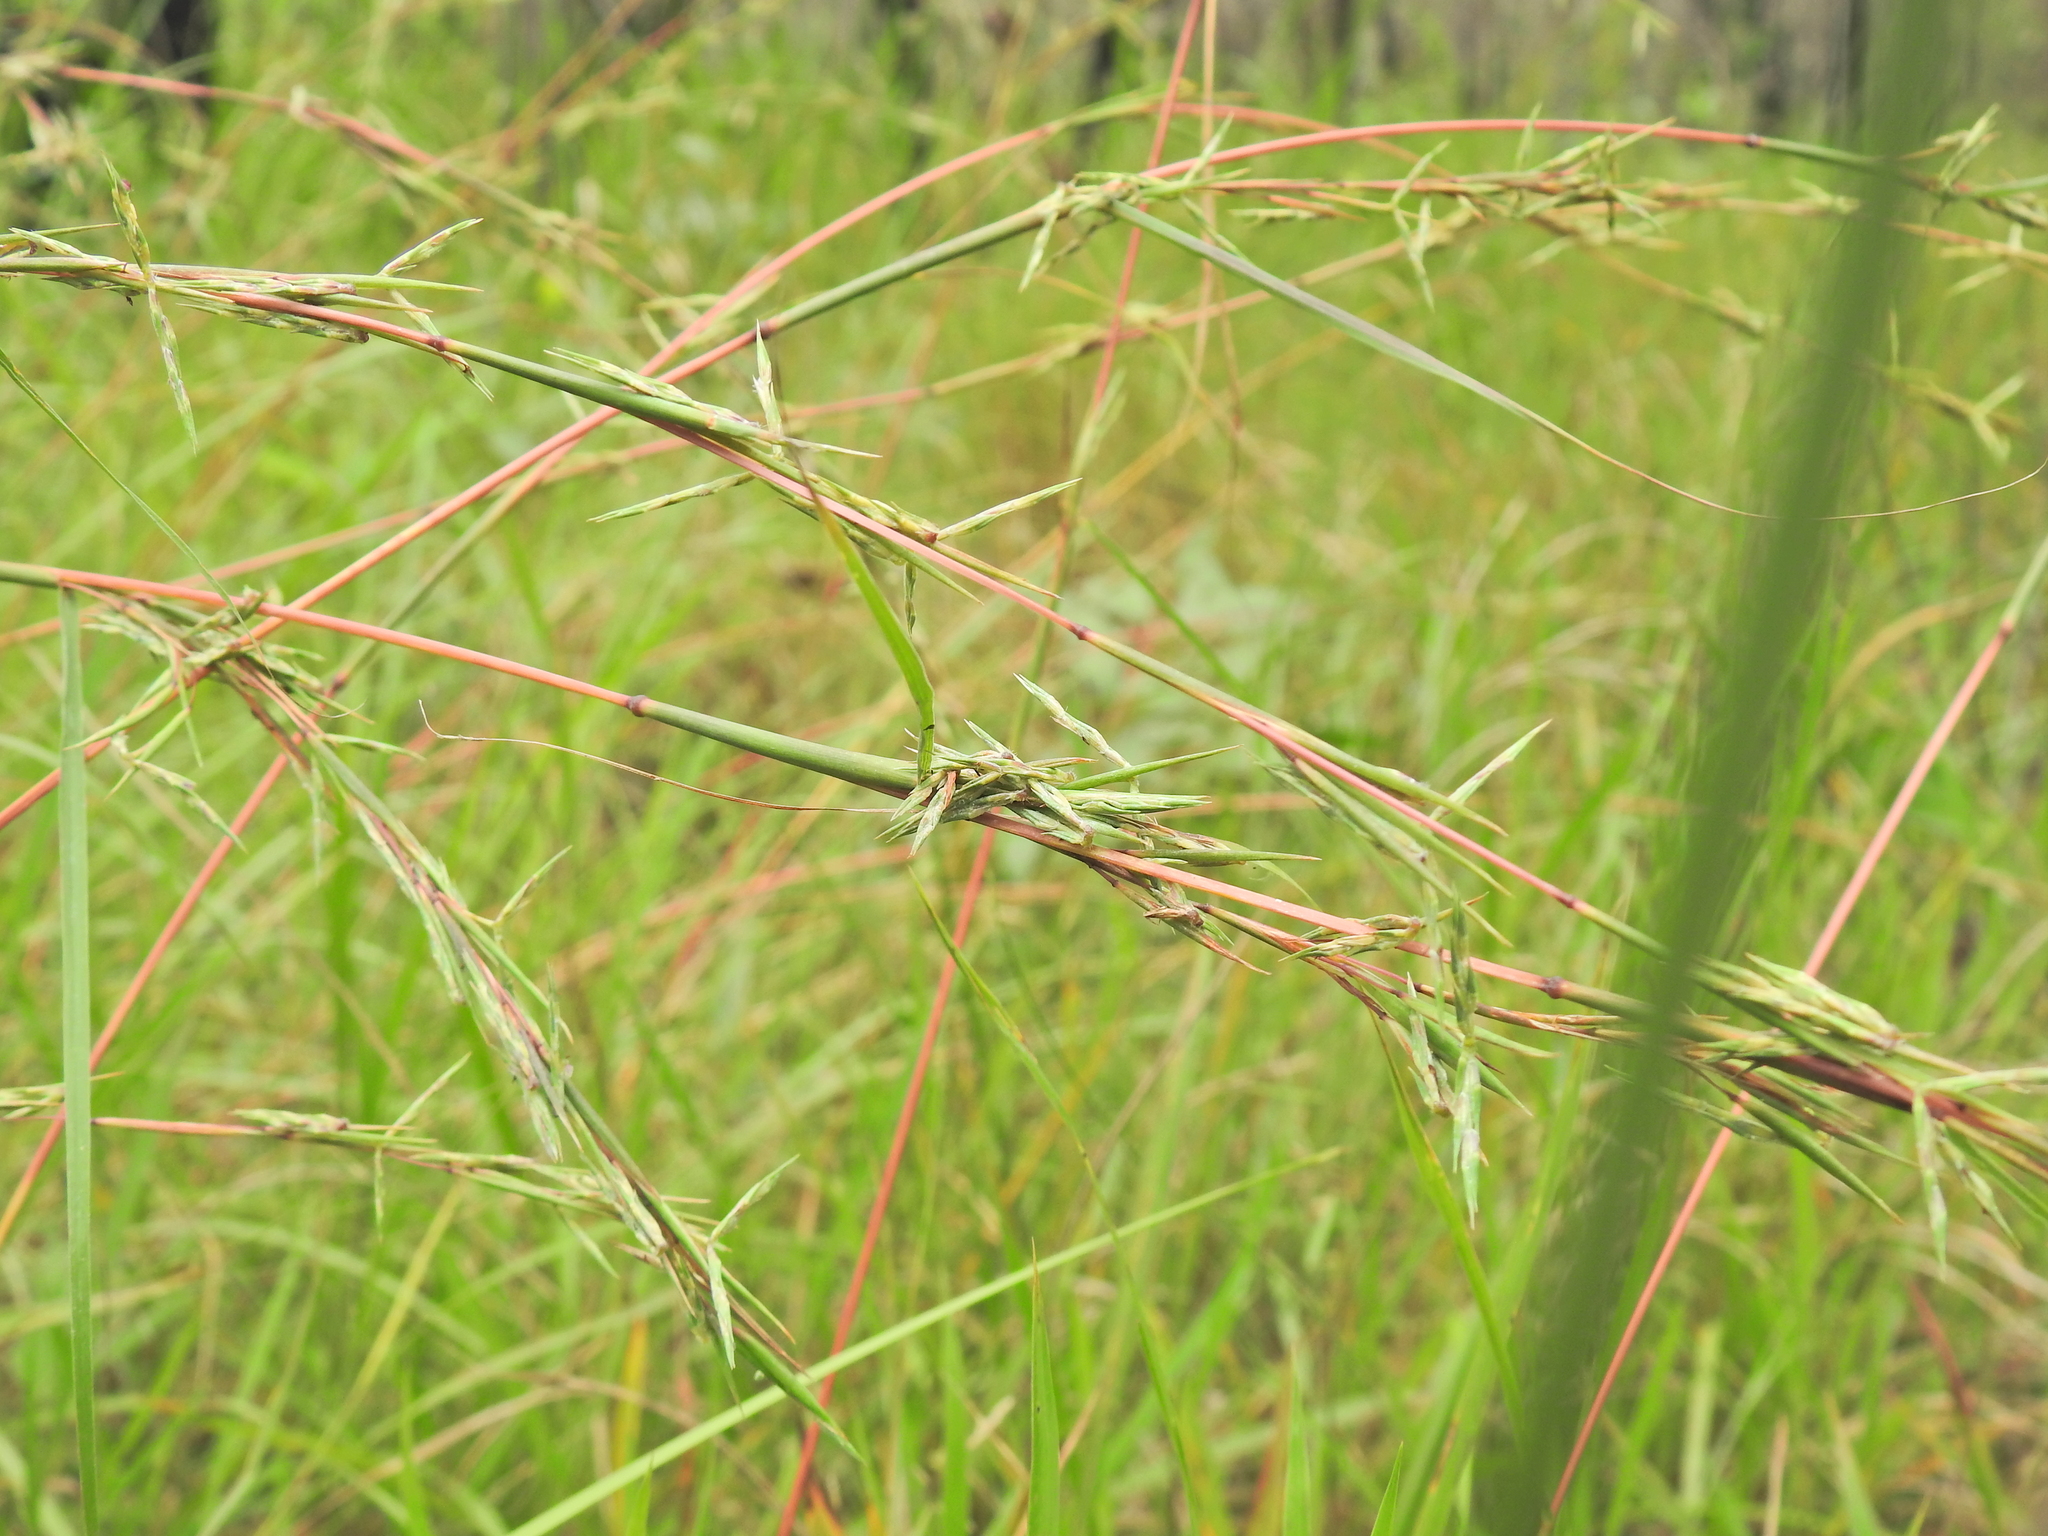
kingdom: Plantae
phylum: Tracheophyta
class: Liliopsida
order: Poales
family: Poaceae
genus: Cymbopogon
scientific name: Cymbopogon refractus
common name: Barbwire grass
